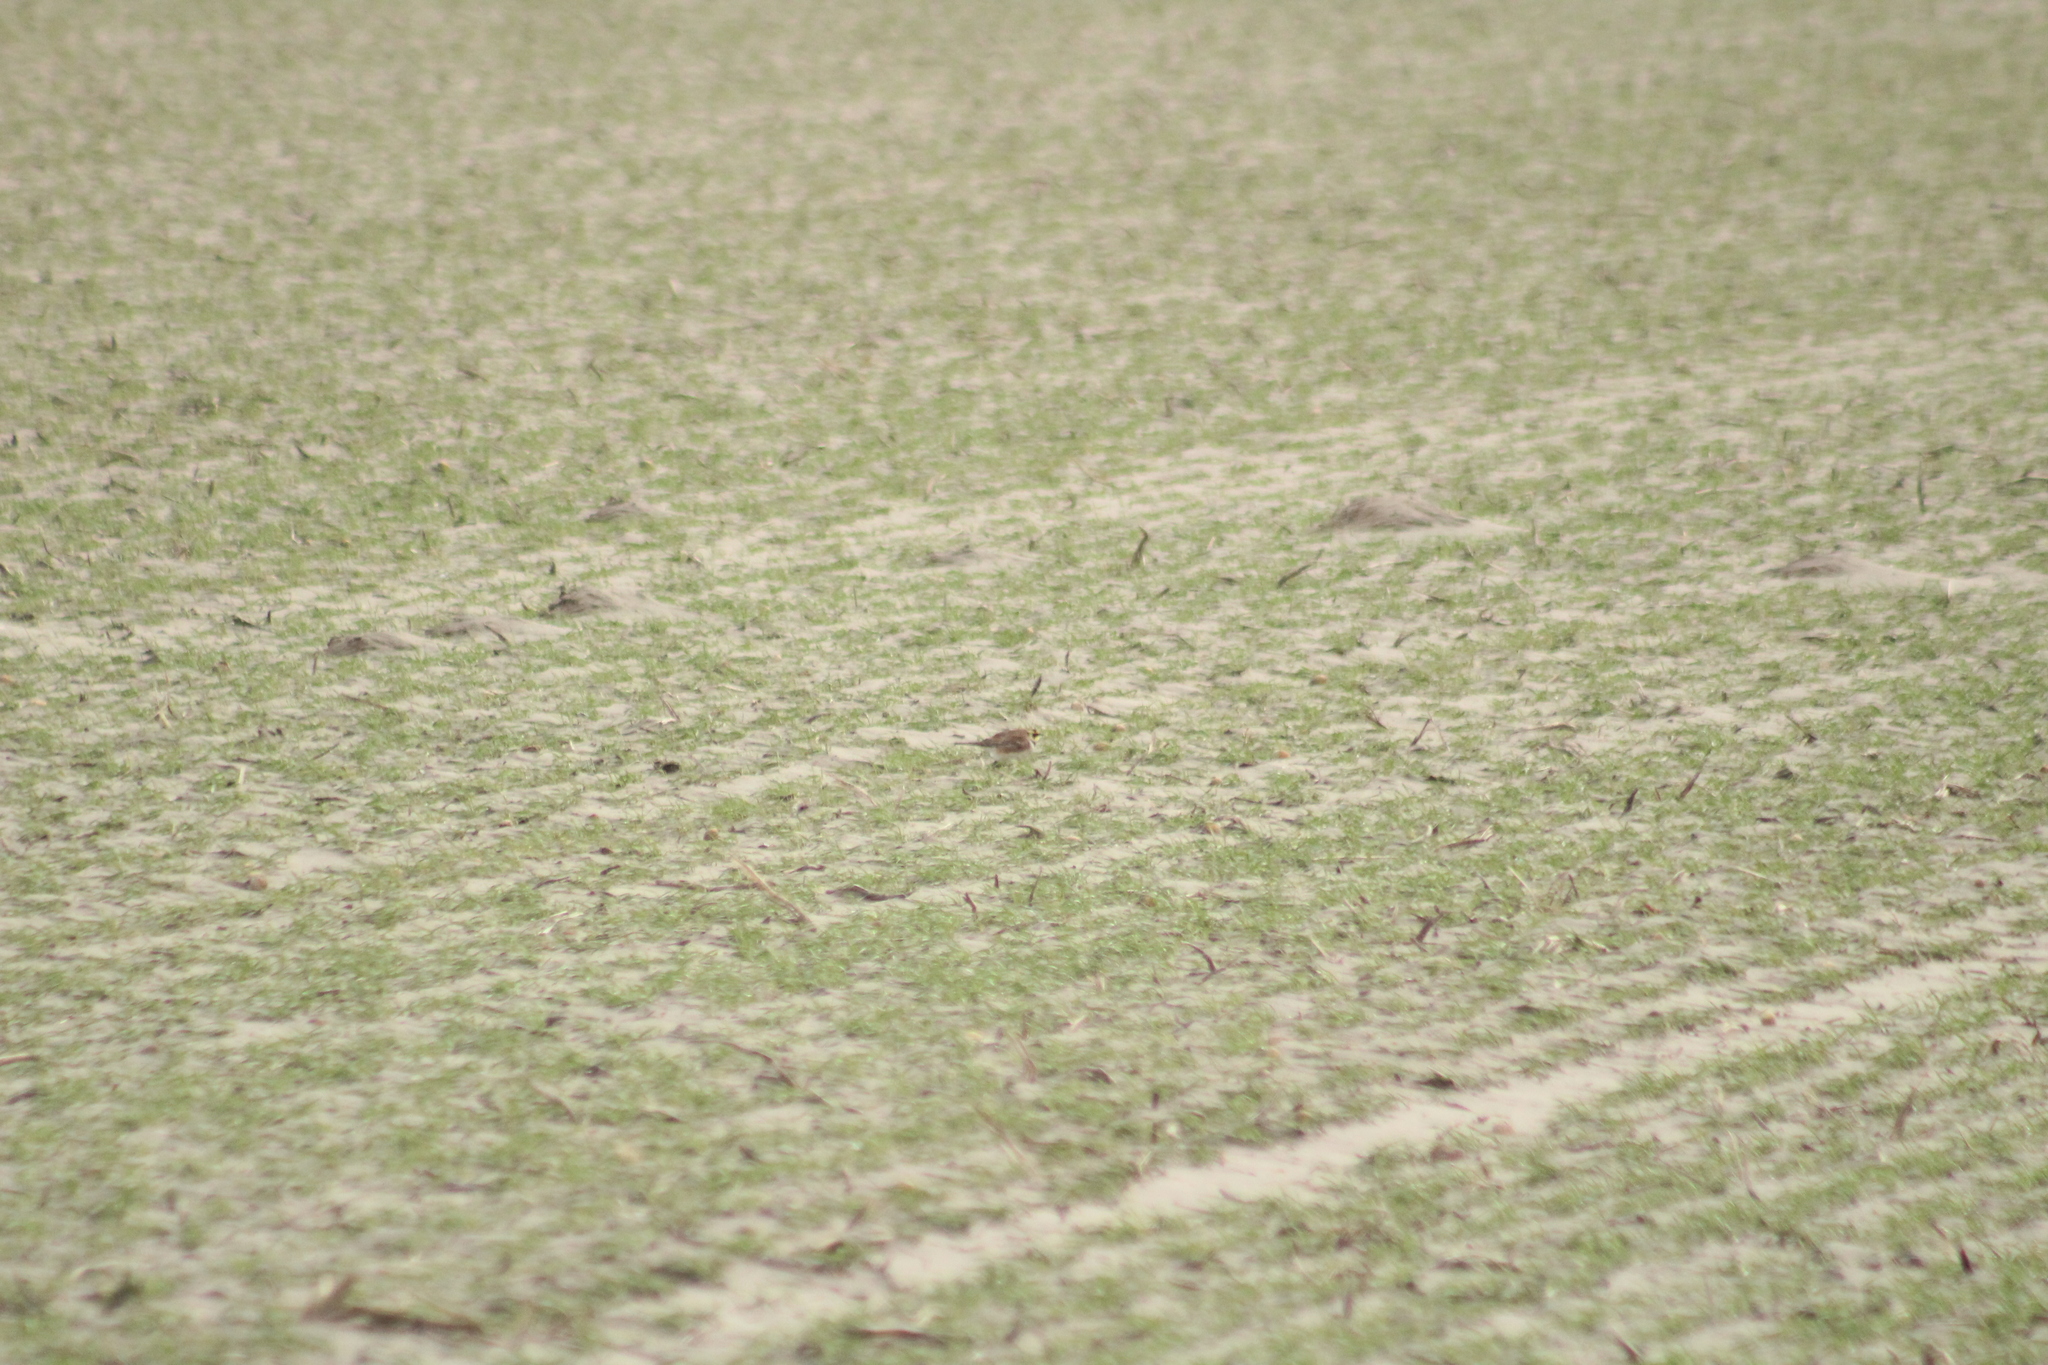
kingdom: Animalia
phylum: Chordata
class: Aves
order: Passeriformes
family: Alaudidae
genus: Eremophila
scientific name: Eremophila alpestris
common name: Horned lark
